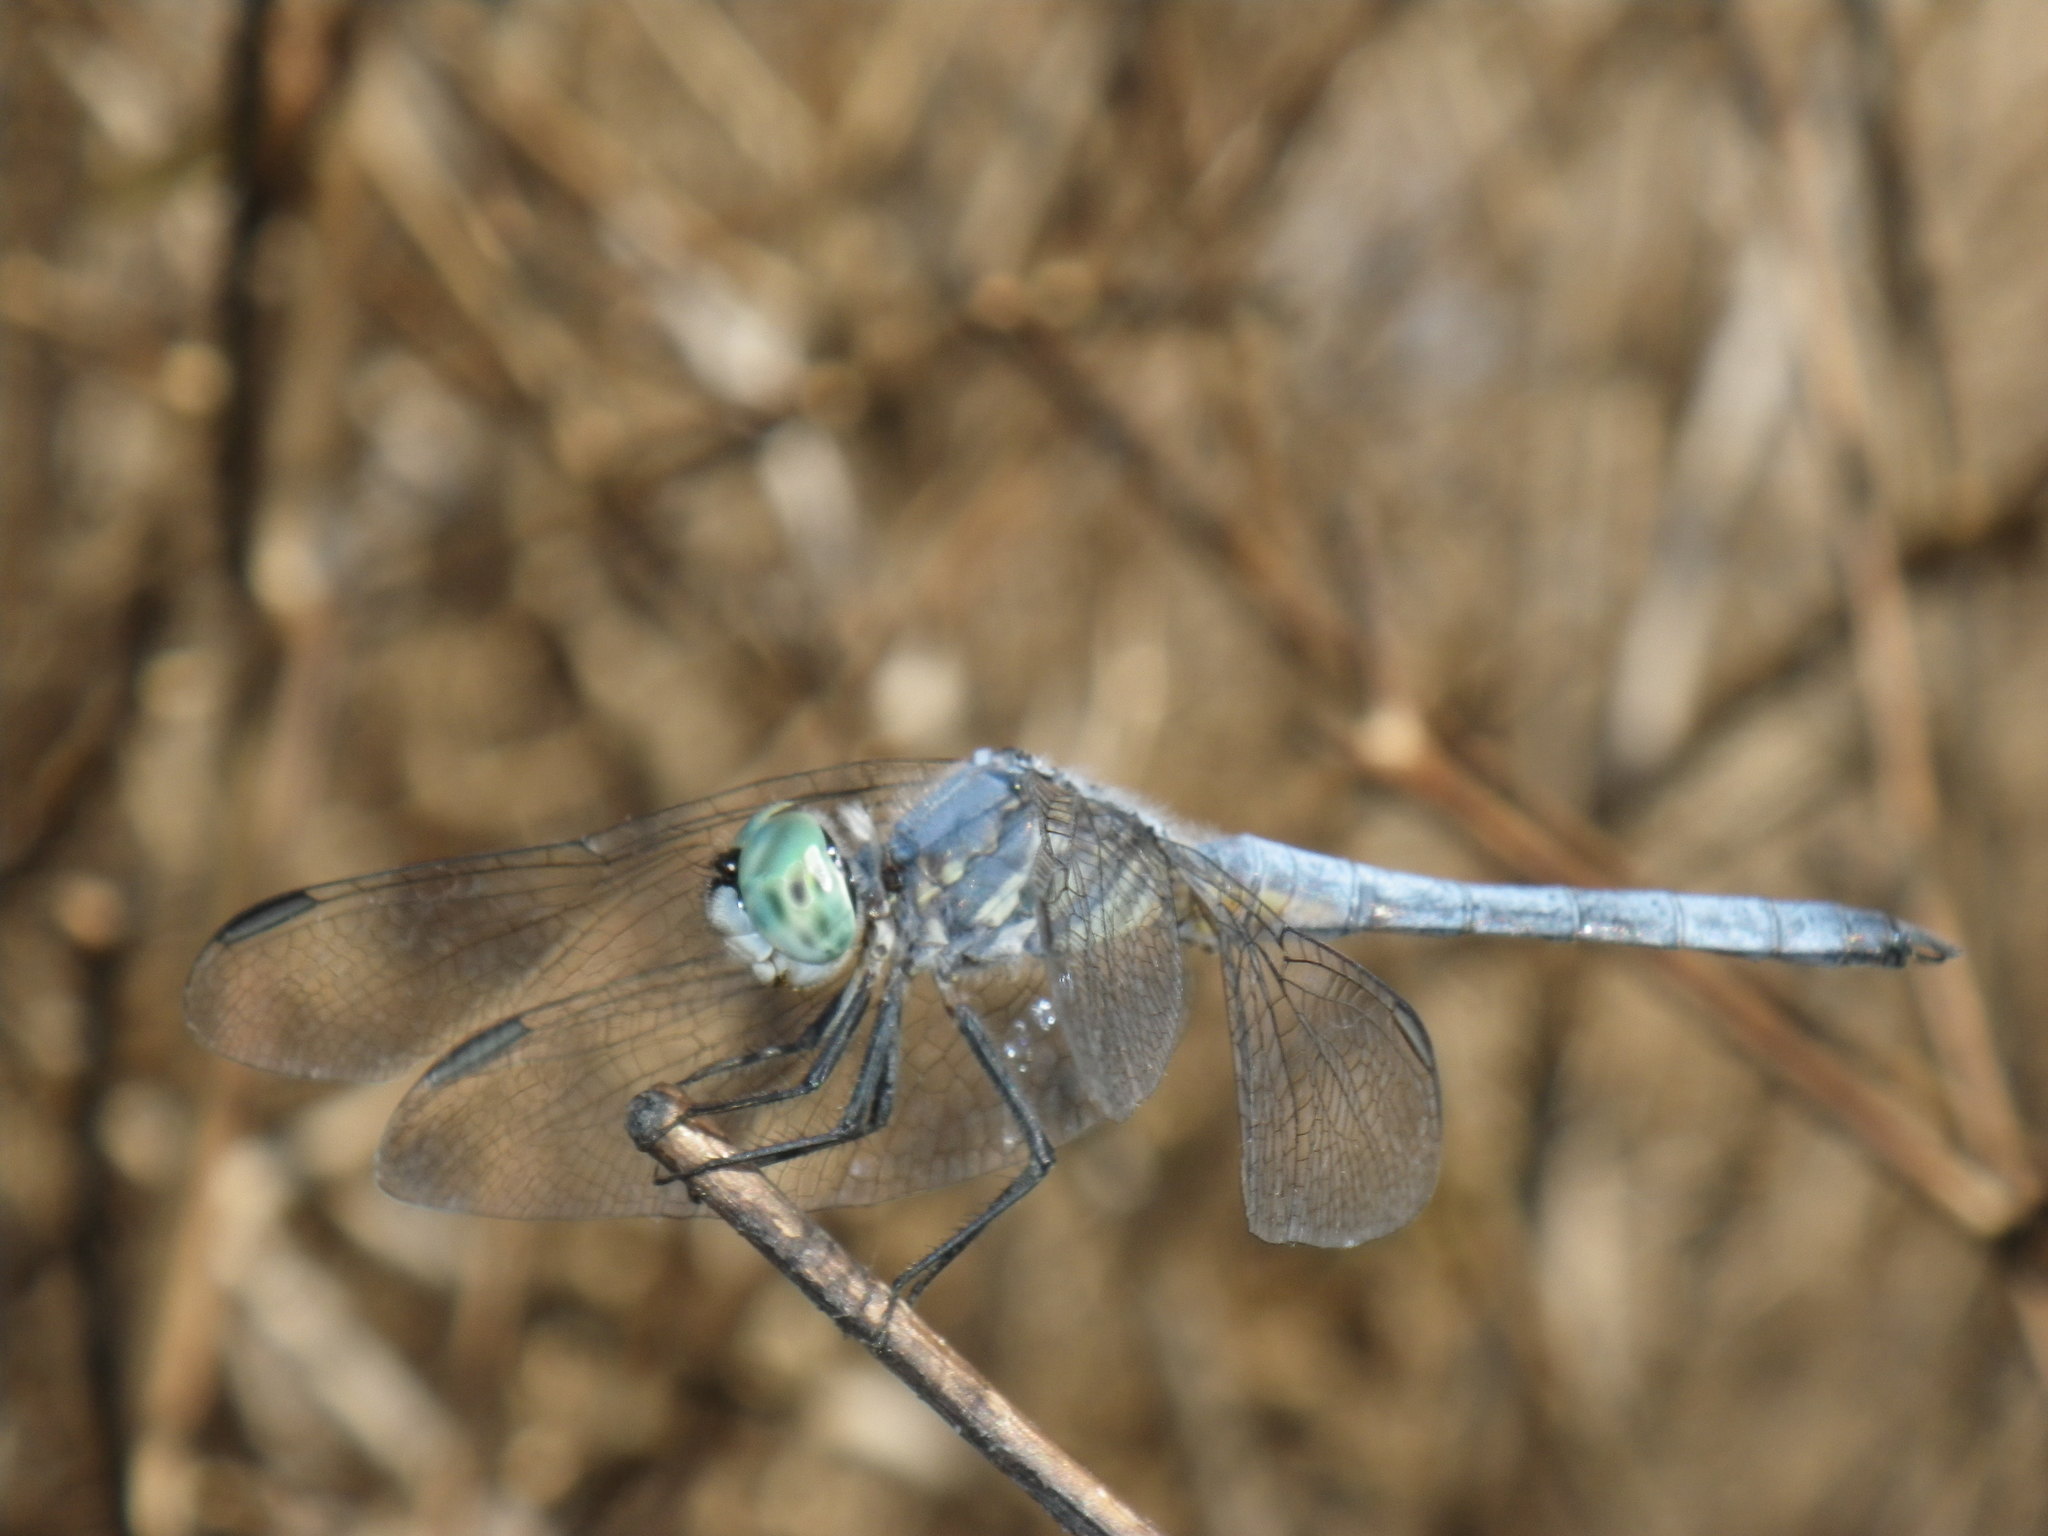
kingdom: Animalia
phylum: Arthropoda
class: Insecta
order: Odonata
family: Libellulidae
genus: Pachydiplax
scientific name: Pachydiplax longipennis
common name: Blue dasher
